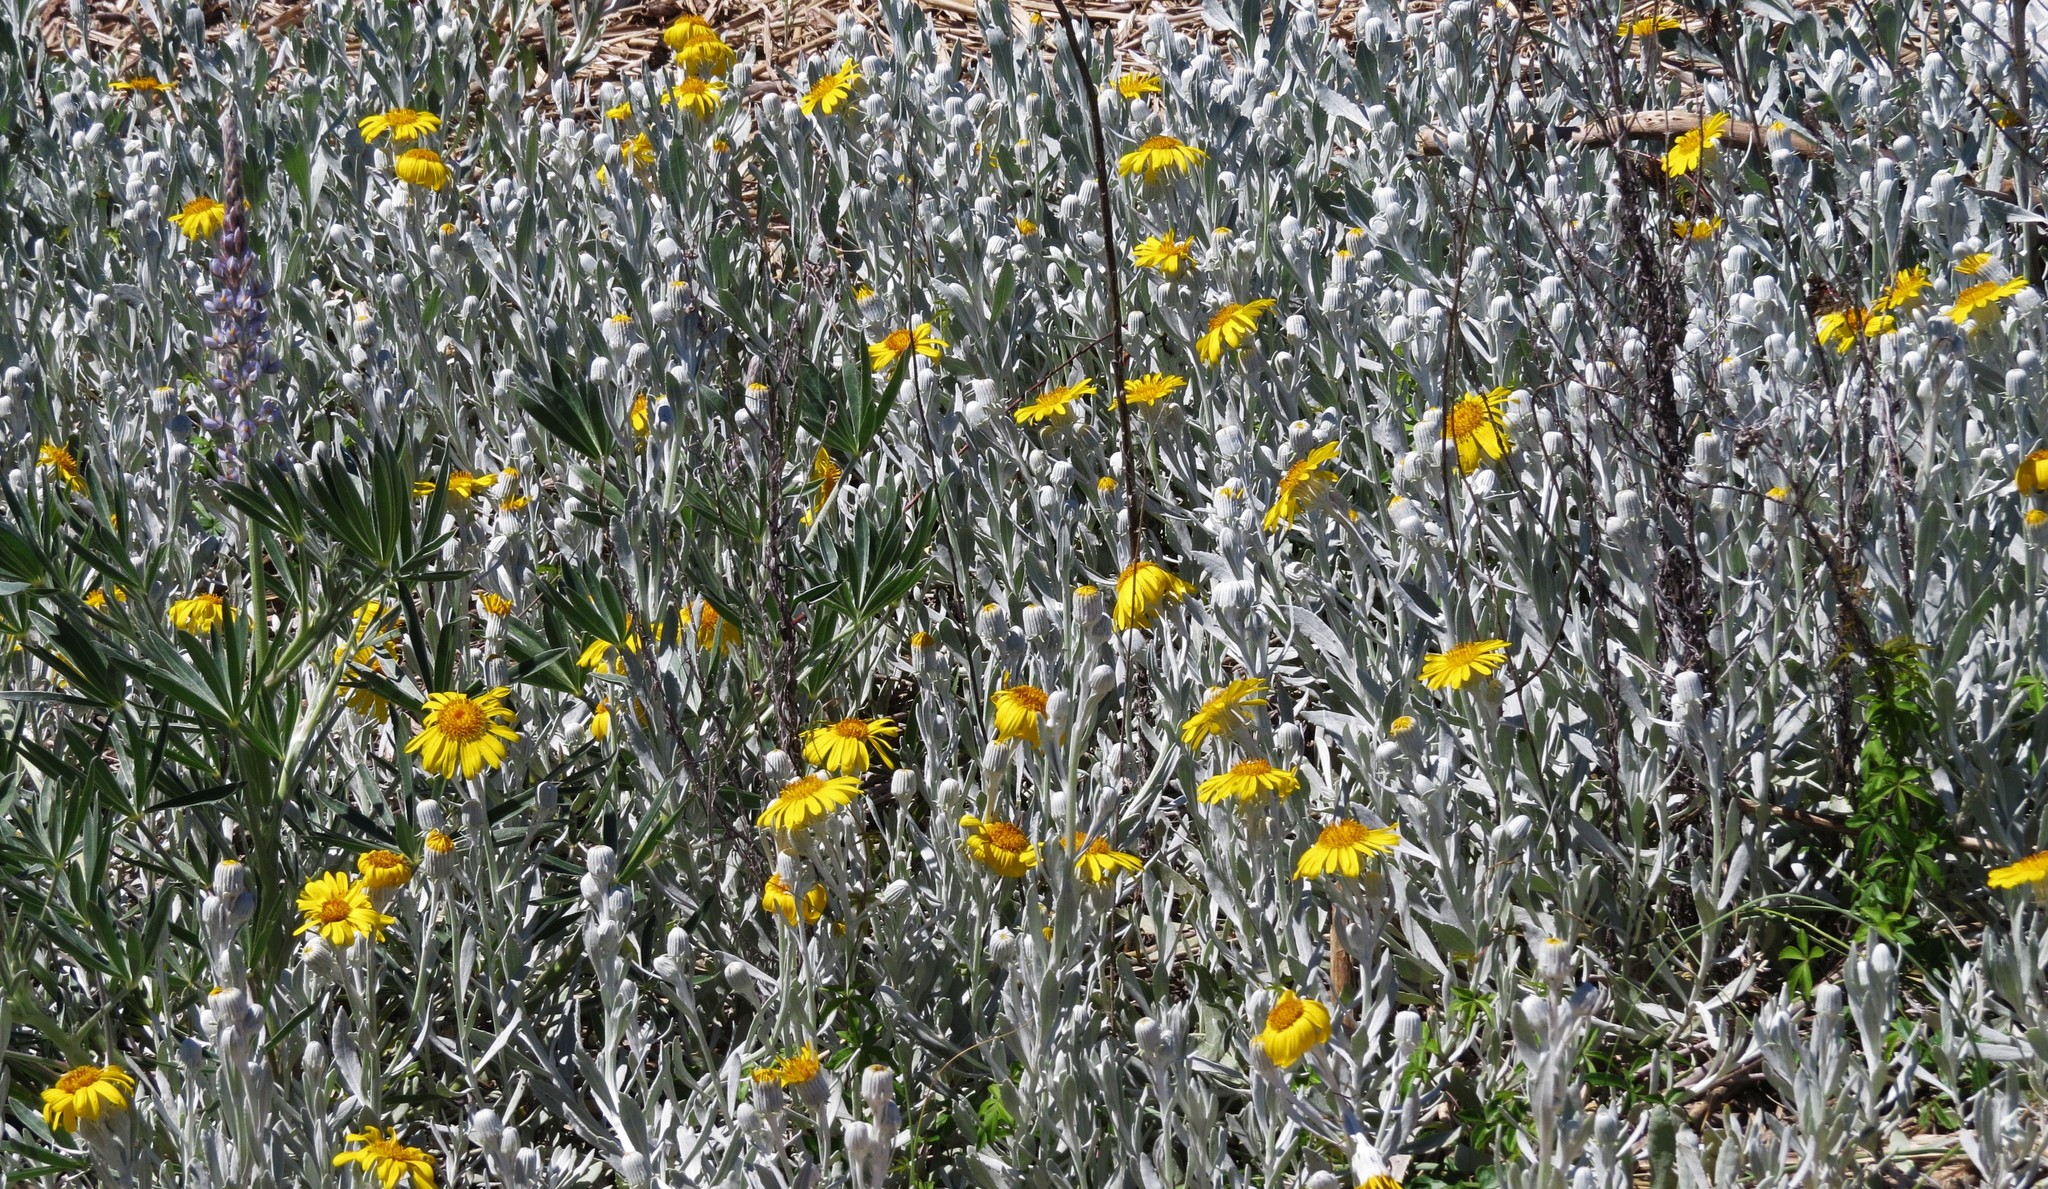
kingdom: Plantae
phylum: Tracheophyta
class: Magnoliopsida
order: Asterales
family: Asteraceae
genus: Senecio
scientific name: Senecio crassiflorus
